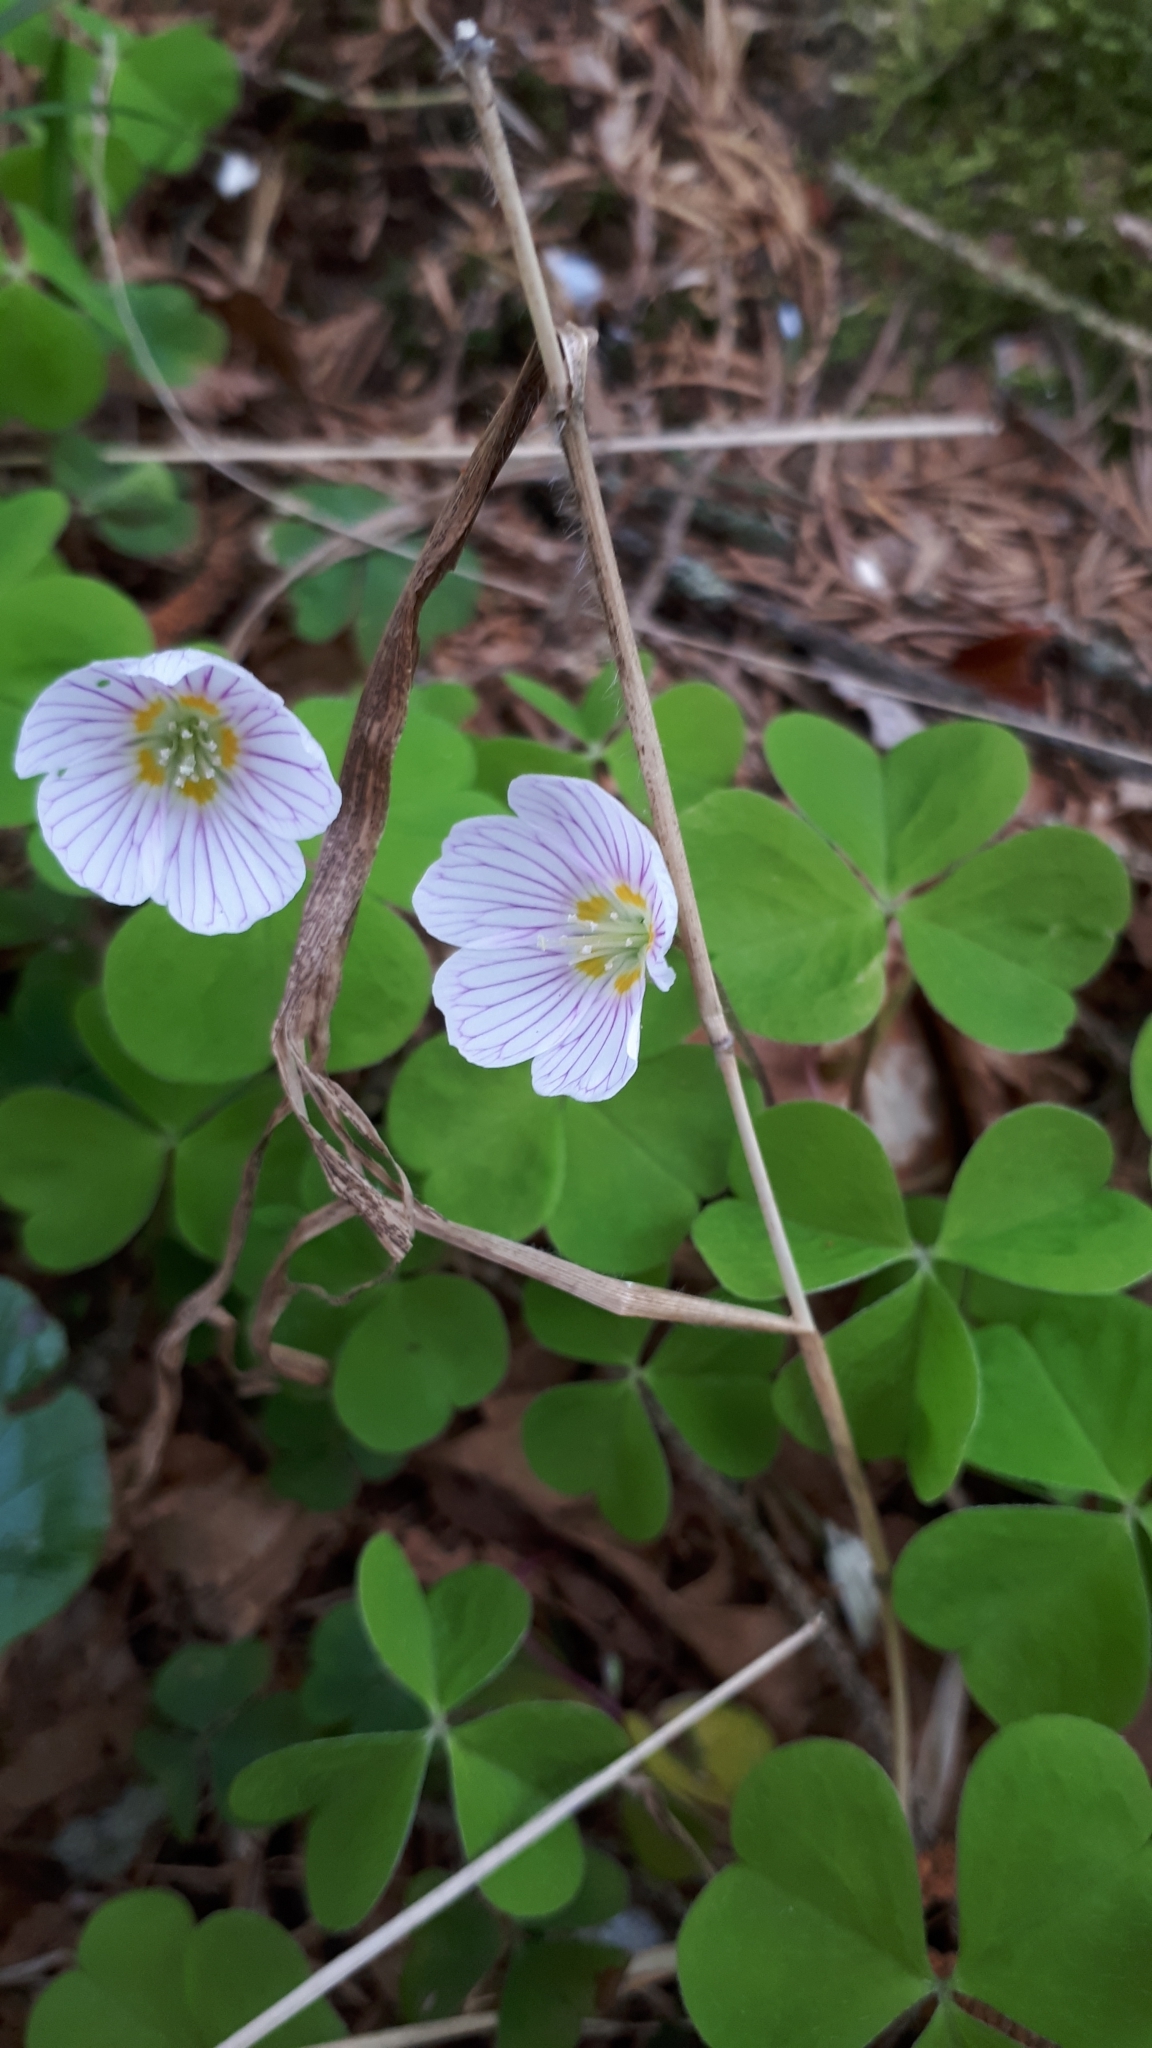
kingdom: Plantae
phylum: Tracheophyta
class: Magnoliopsida
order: Oxalidales
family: Oxalidaceae
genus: Oxalis
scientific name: Oxalis acetosella
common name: Wood-sorrel
